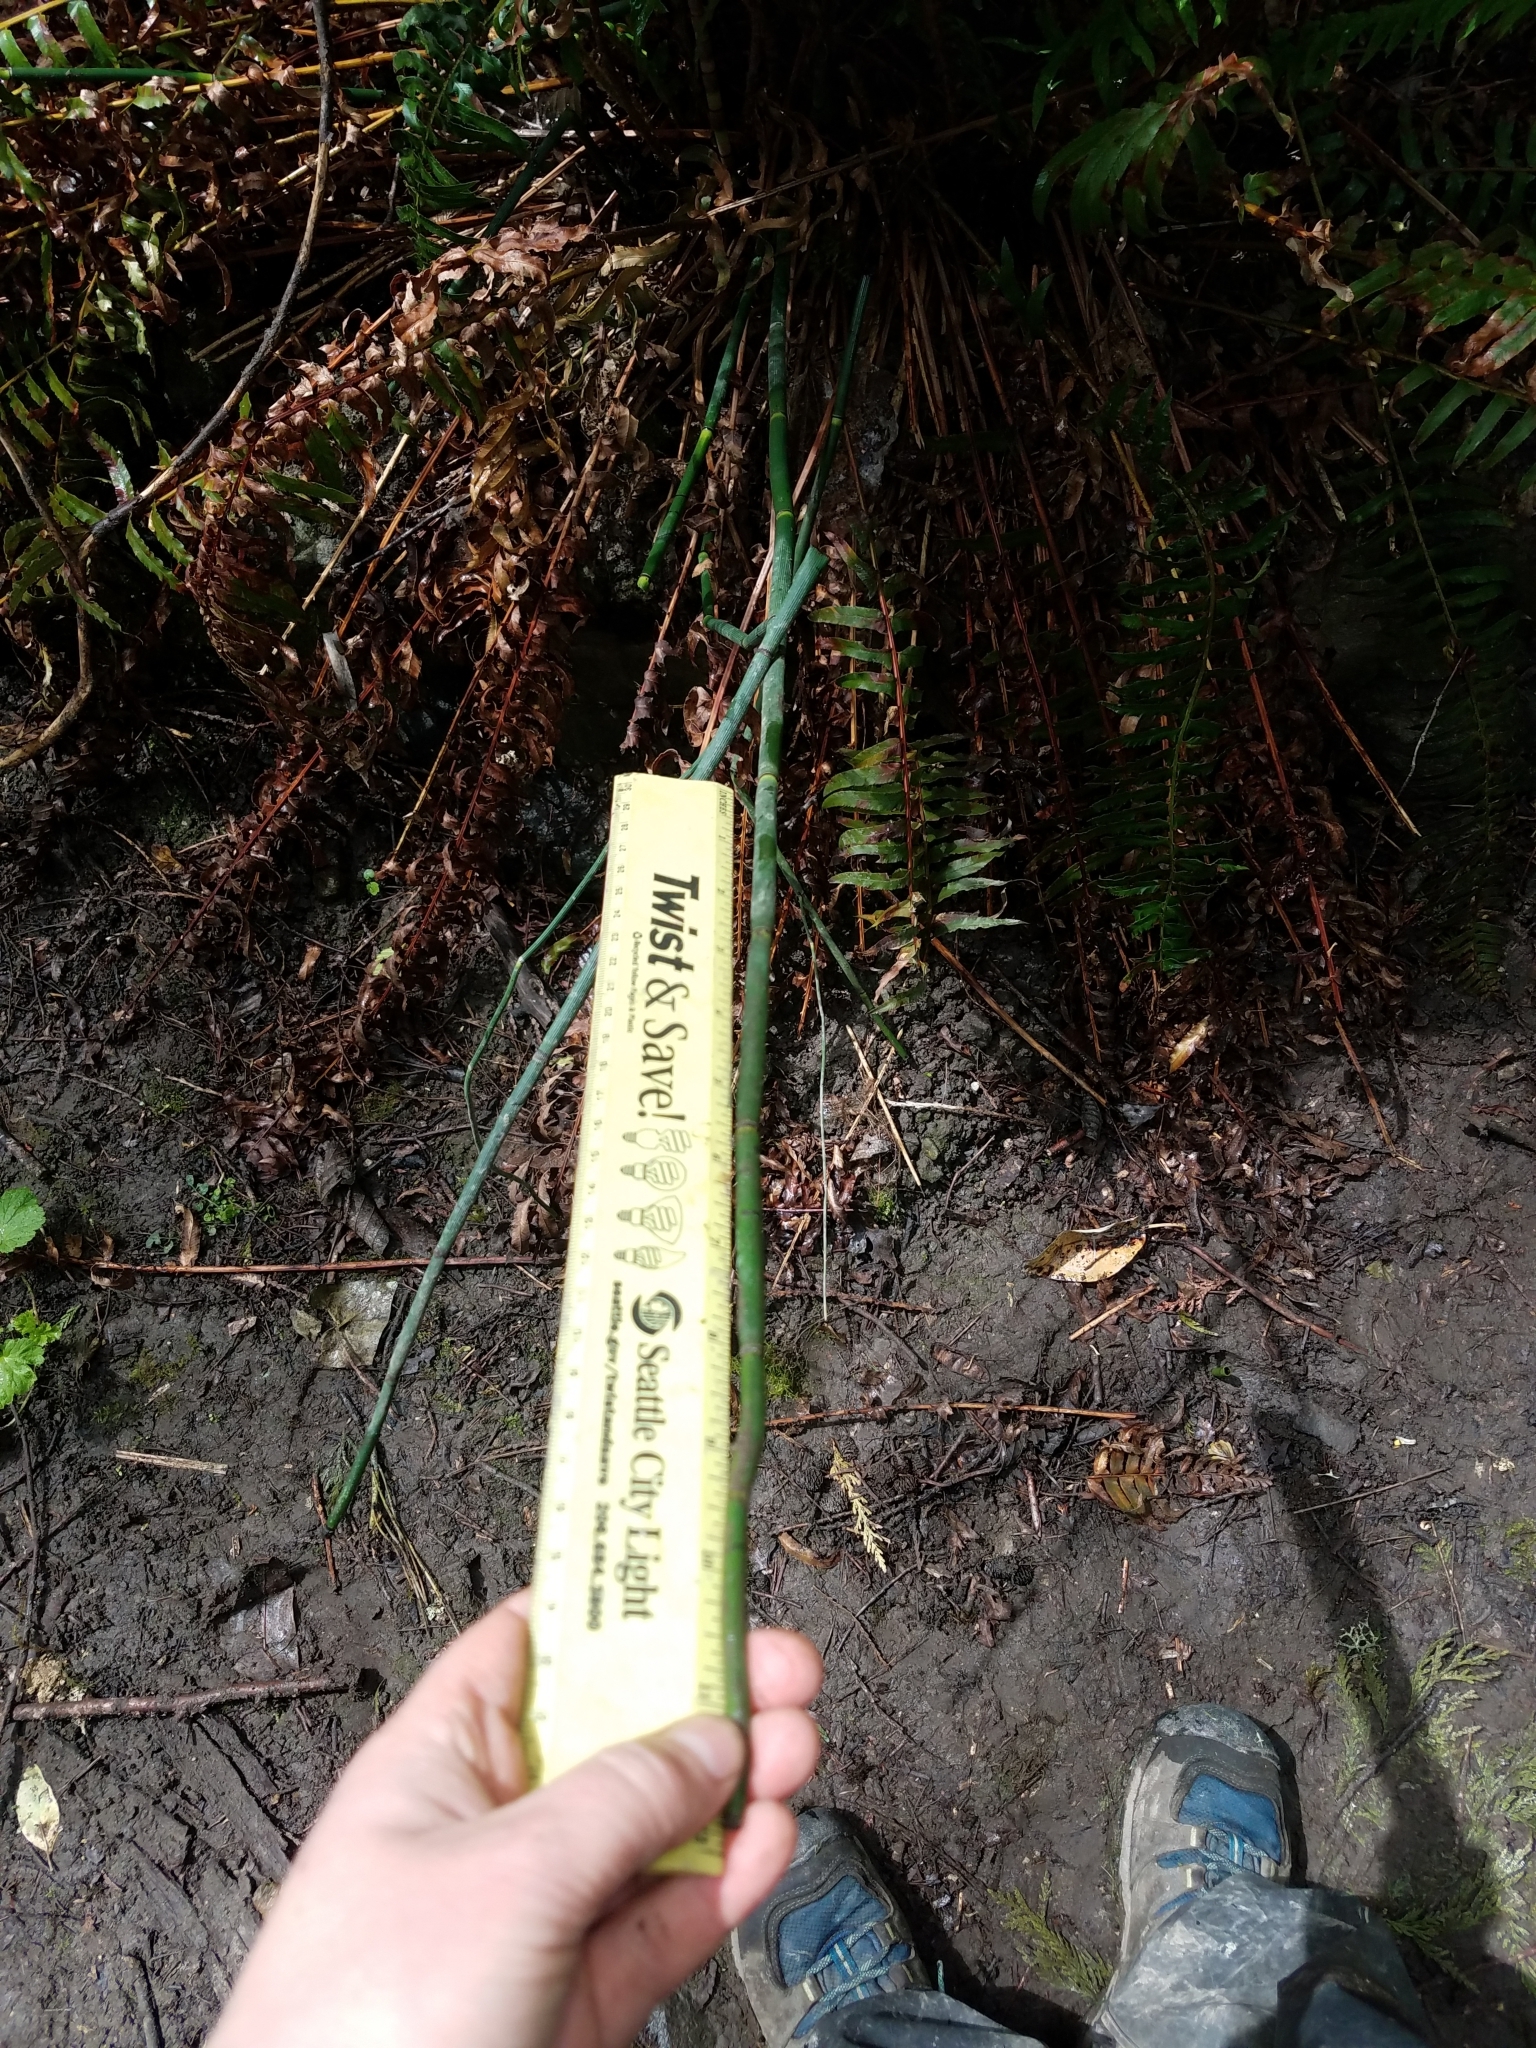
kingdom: Plantae
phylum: Tracheophyta
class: Polypodiopsida
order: Equisetales
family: Equisetaceae
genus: Equisetum
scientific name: Equisetum hyemale
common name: Rough horsetail
